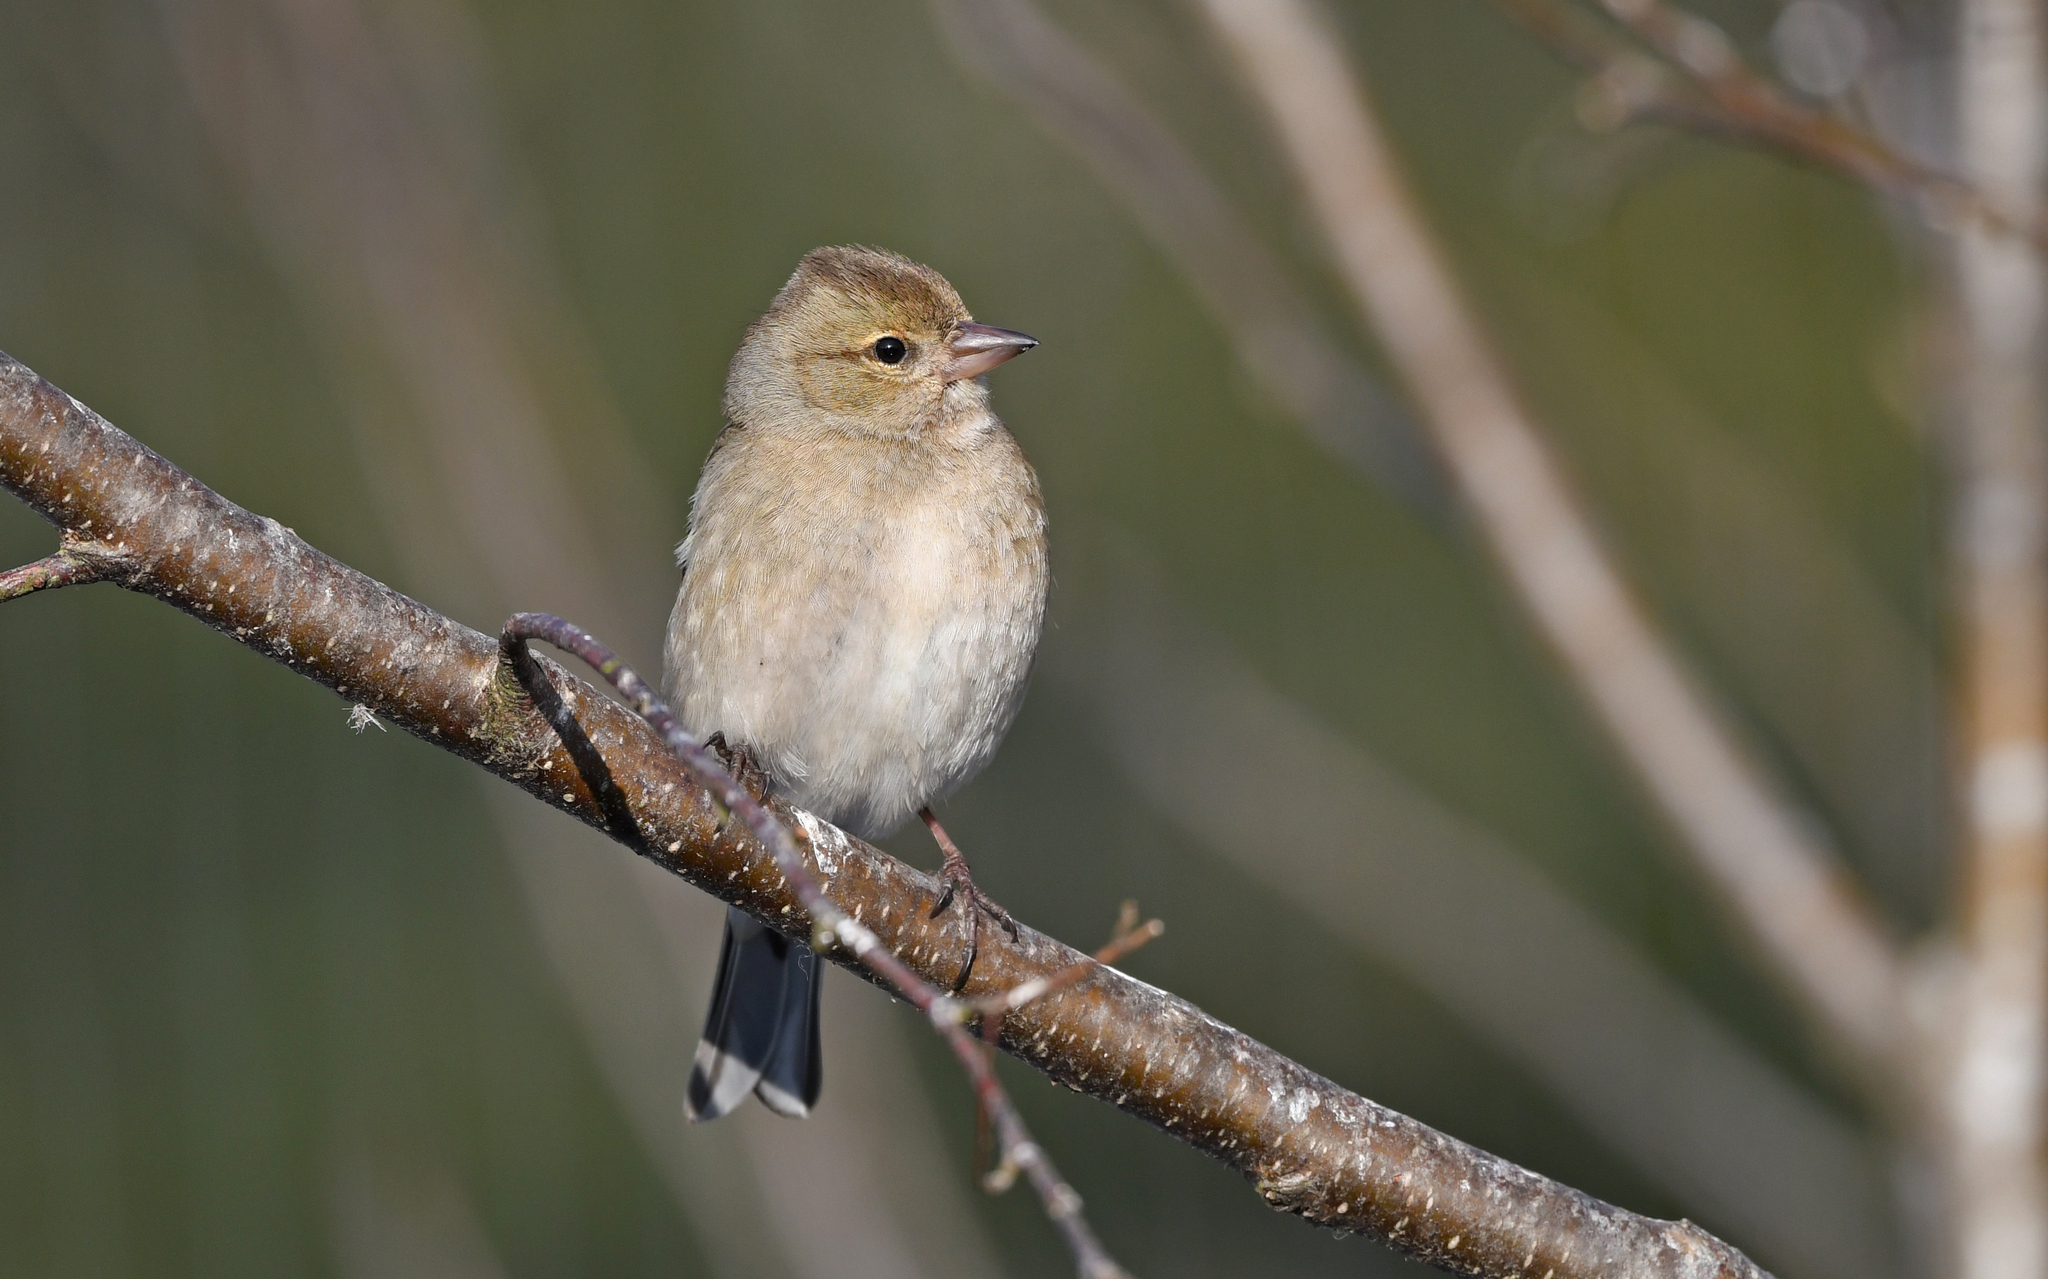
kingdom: Animalia
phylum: Chordata
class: Aves
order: Passeriformes
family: Fringillidae
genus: Fringilla
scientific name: Fringilla coelebs
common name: Common chaffinch
